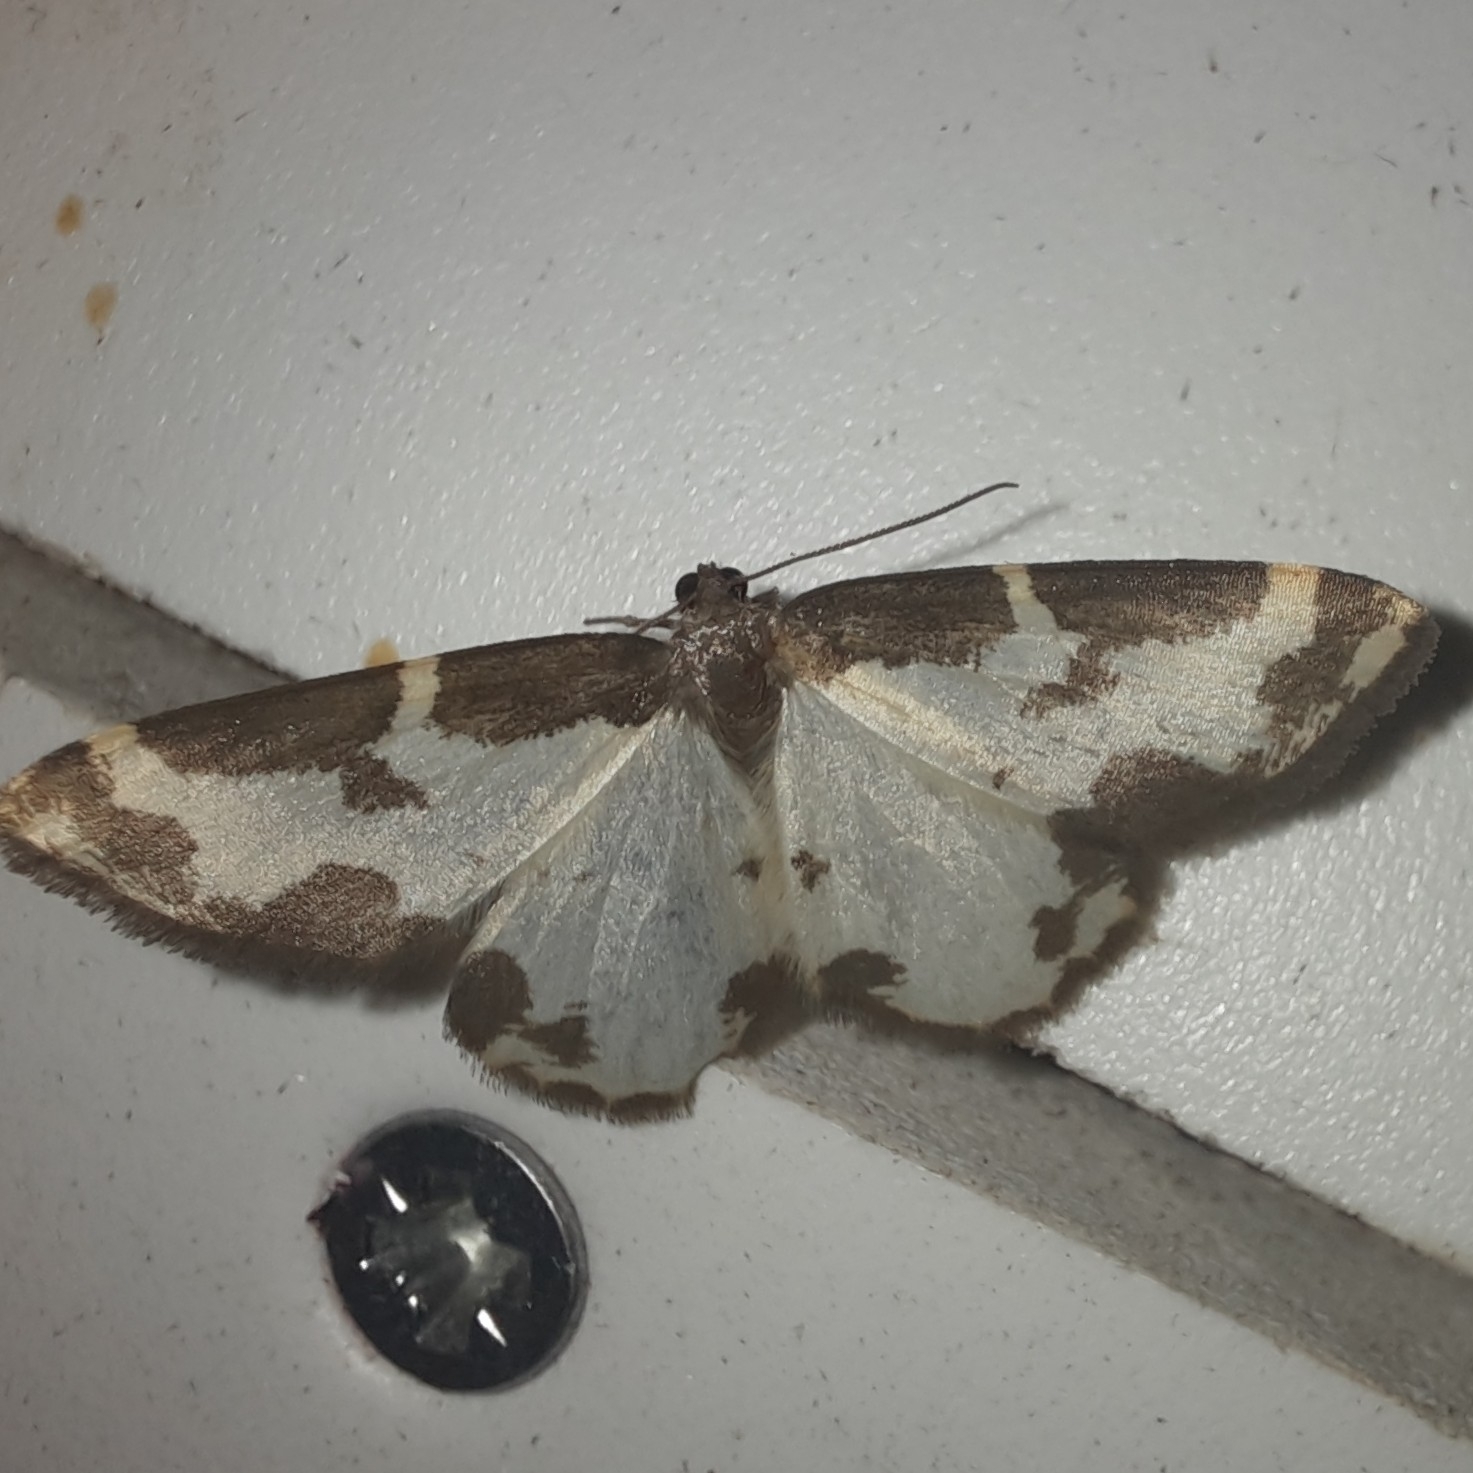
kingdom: Animalia
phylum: Arthropoda
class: Insecta
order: Lepidoptera
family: Geometridae
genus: Lomaspilis
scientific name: Lomaspilis marginata
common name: Clouded border
